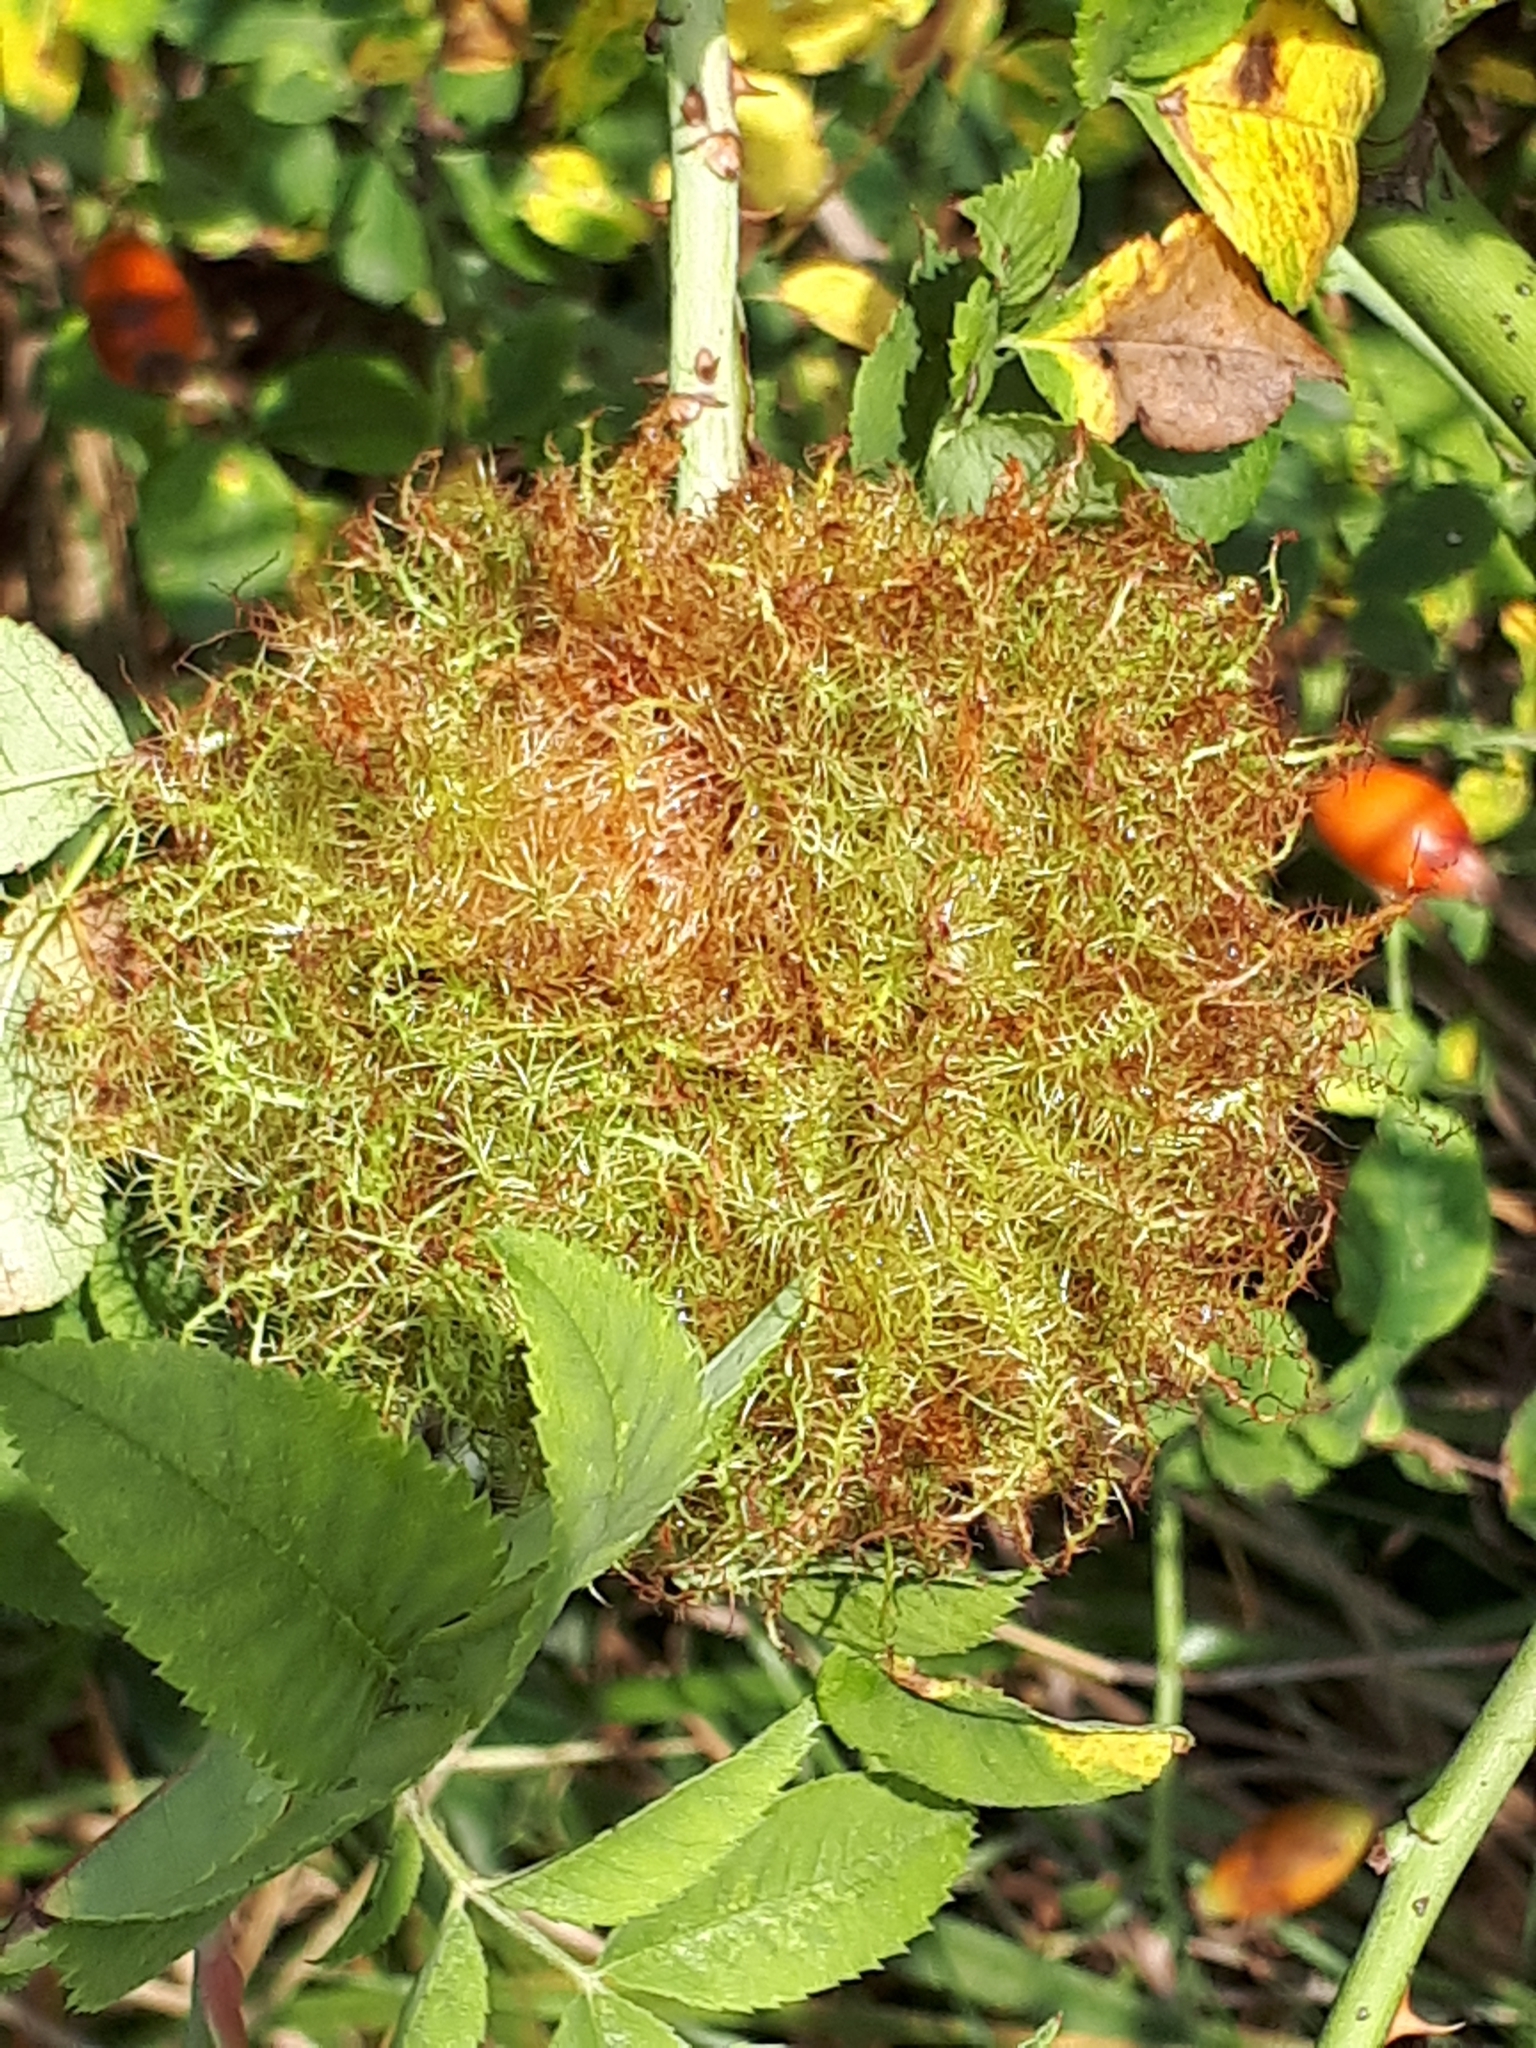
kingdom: Animalia
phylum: Arthropoda
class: Insecta
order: Hymenoptera
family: Cynipidae
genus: Diplolepis
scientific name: Diplolepis rosae
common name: Bedeguar gall
